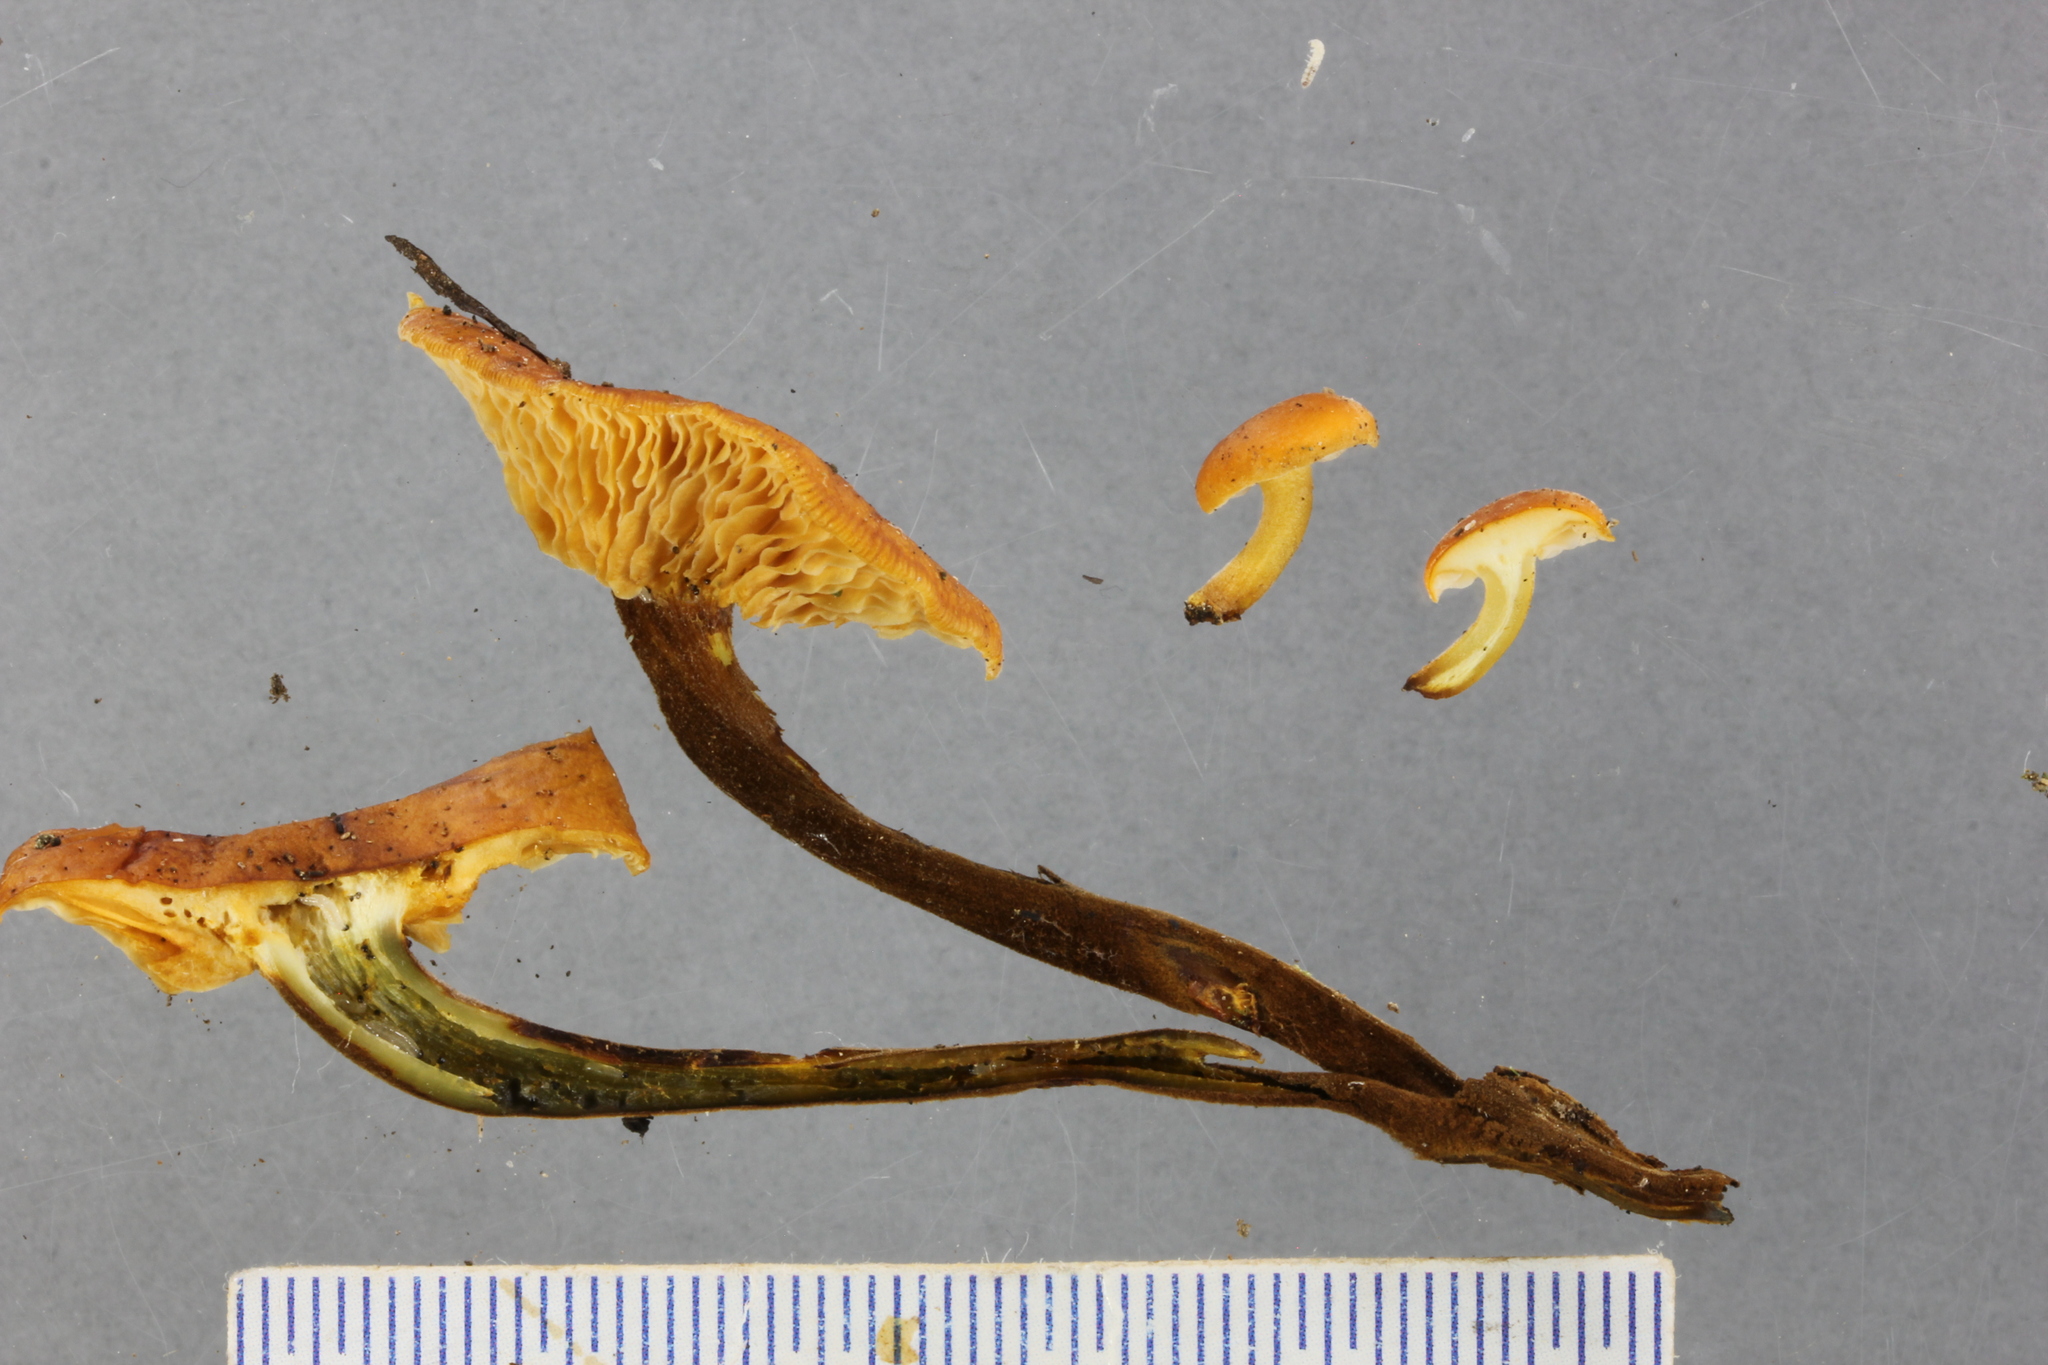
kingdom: Fungi
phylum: Basidiomycota
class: Agaricomycetes
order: Agaricales
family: Physalacriaceae
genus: Flammulina
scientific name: Flammulina velutipes
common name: Velvet shank
